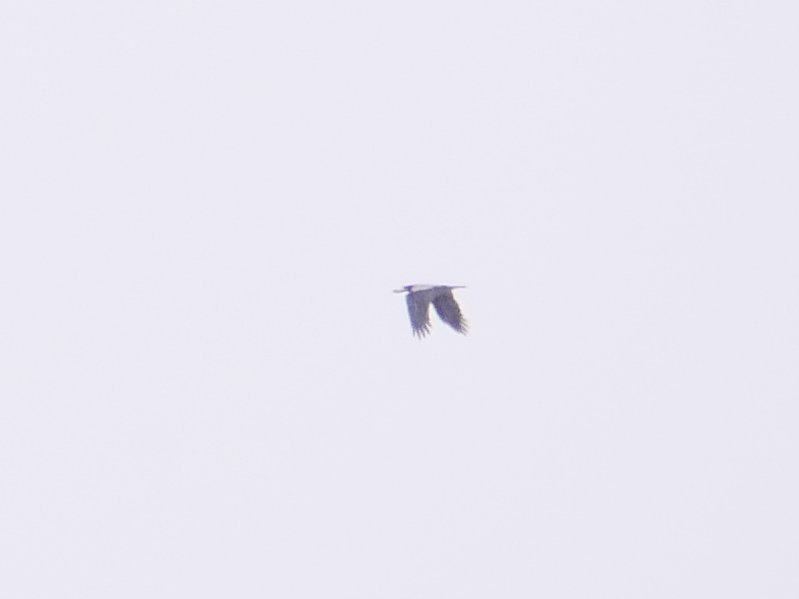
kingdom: Animalia
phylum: Chordata
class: Aves
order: Passeriformes
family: Corvidae
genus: Corvus
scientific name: Corvus cornix
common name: Hooded crow
